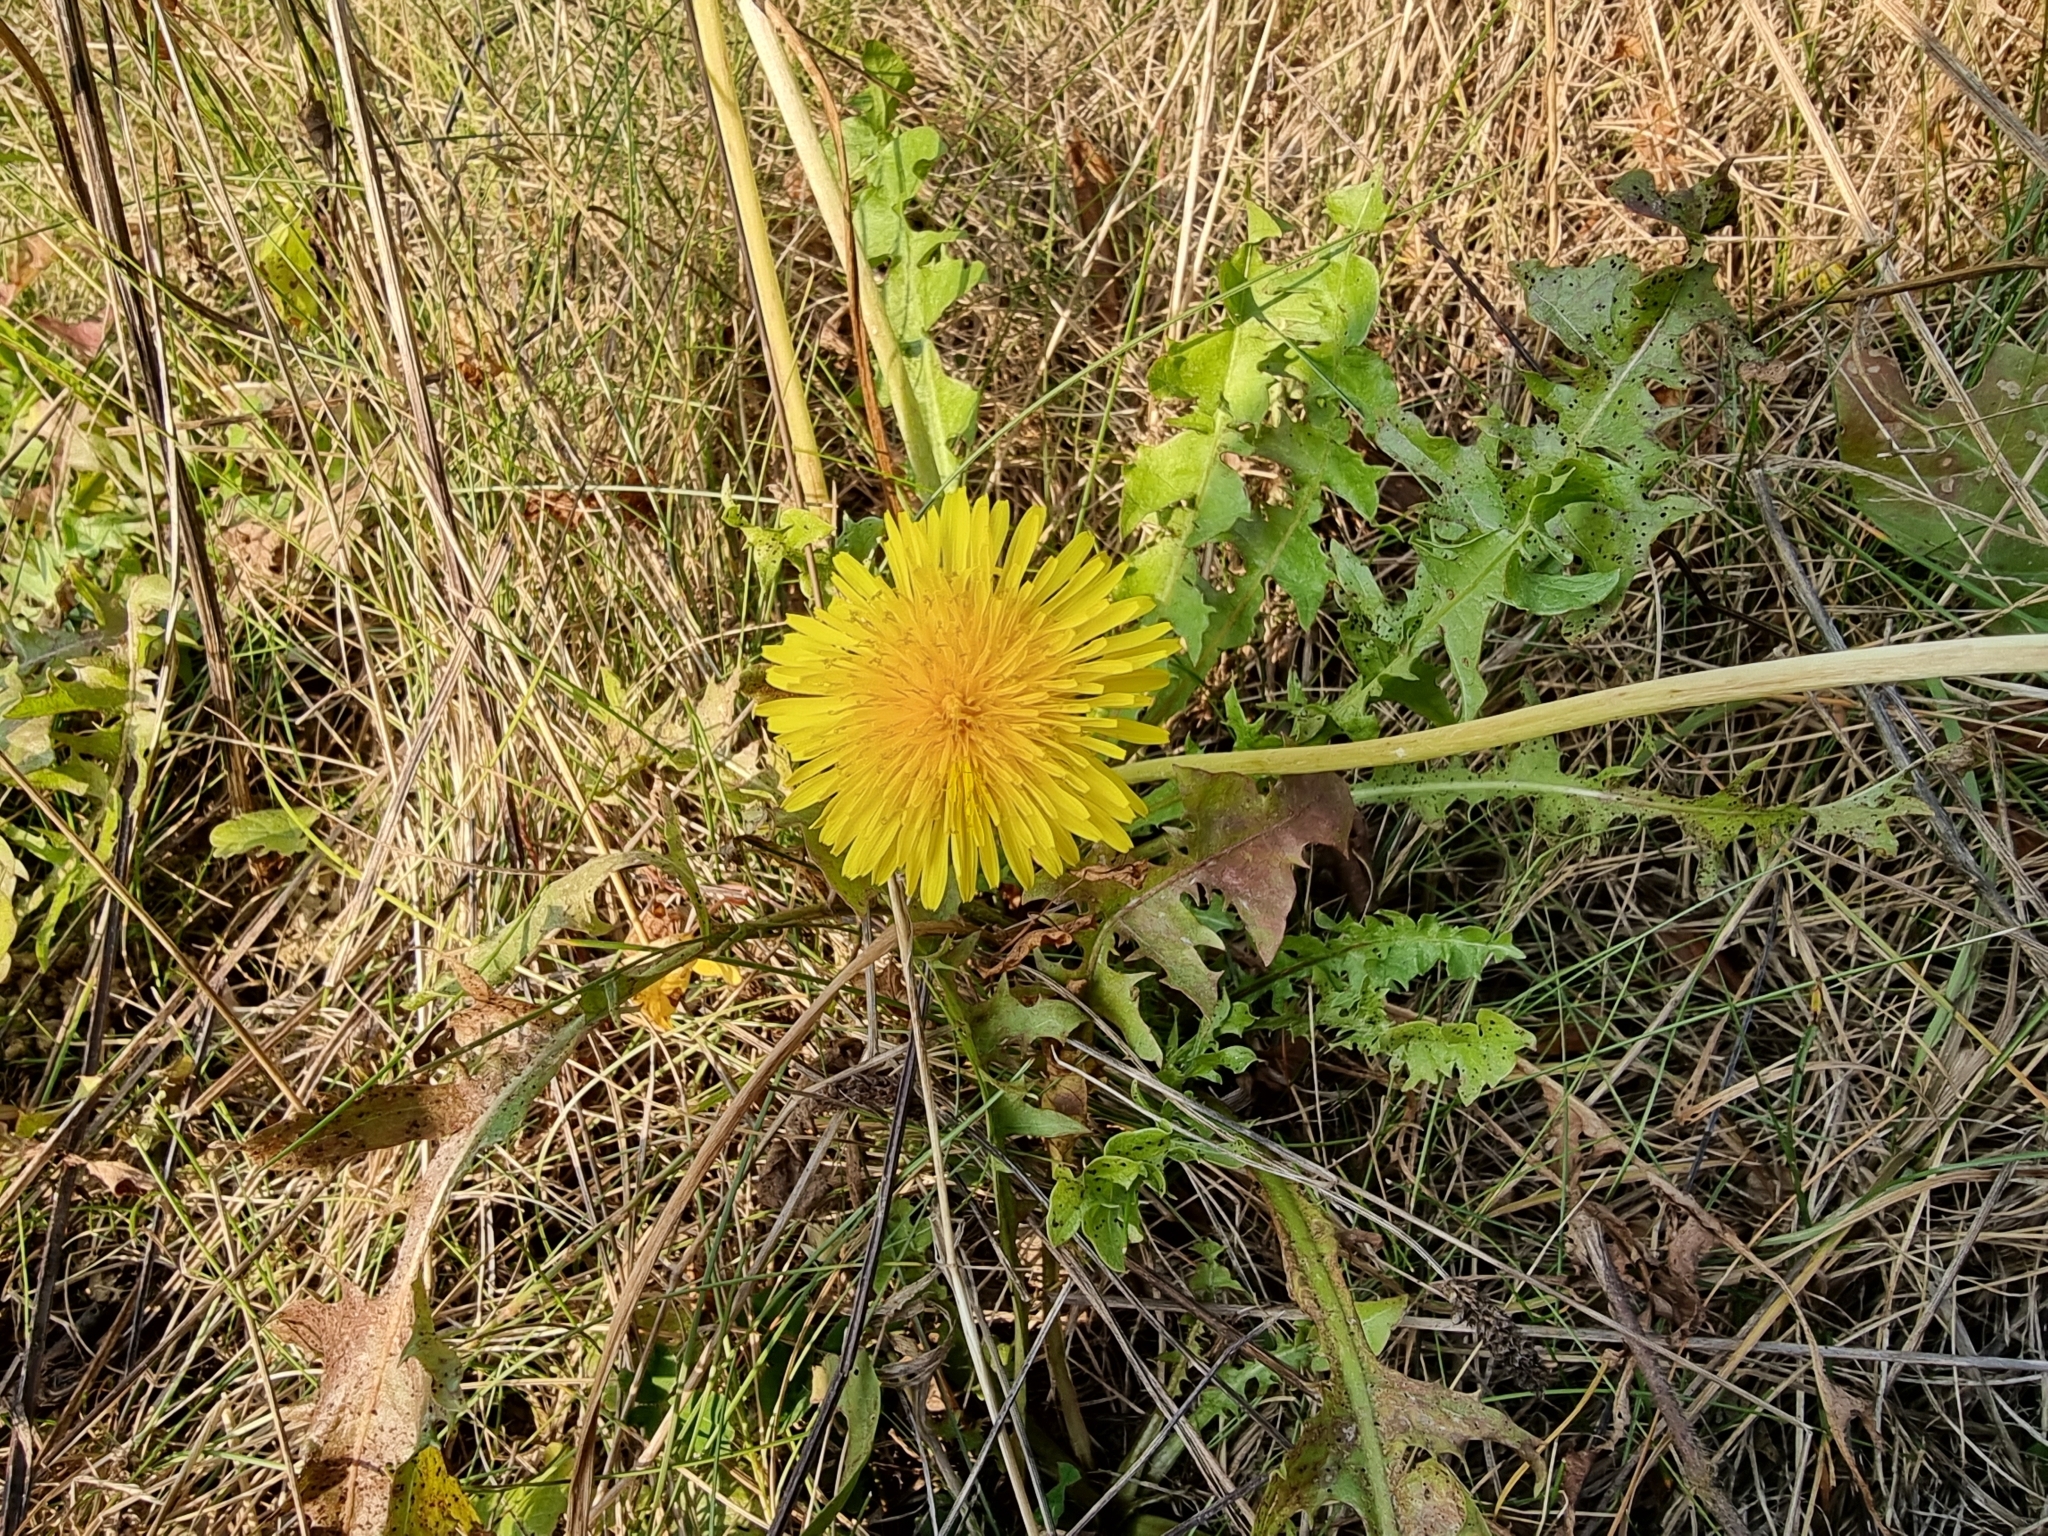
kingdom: Plantae
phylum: Tracheophyta
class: Magnoliopsida
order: Asterales
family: Asteraceae
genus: Taraxacum
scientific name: Taraxacum officinale
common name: Common dandelion
